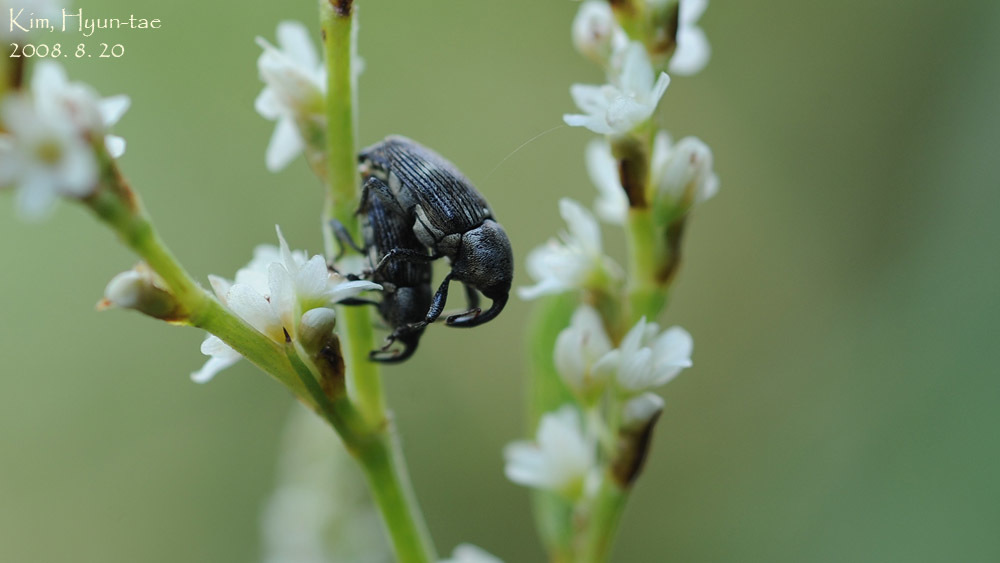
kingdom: Animalia
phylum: Arthropoda
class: Insecta
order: Coleoptera
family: Curculionidae
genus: Anthinobaris
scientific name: Anthinobaris dispilota
